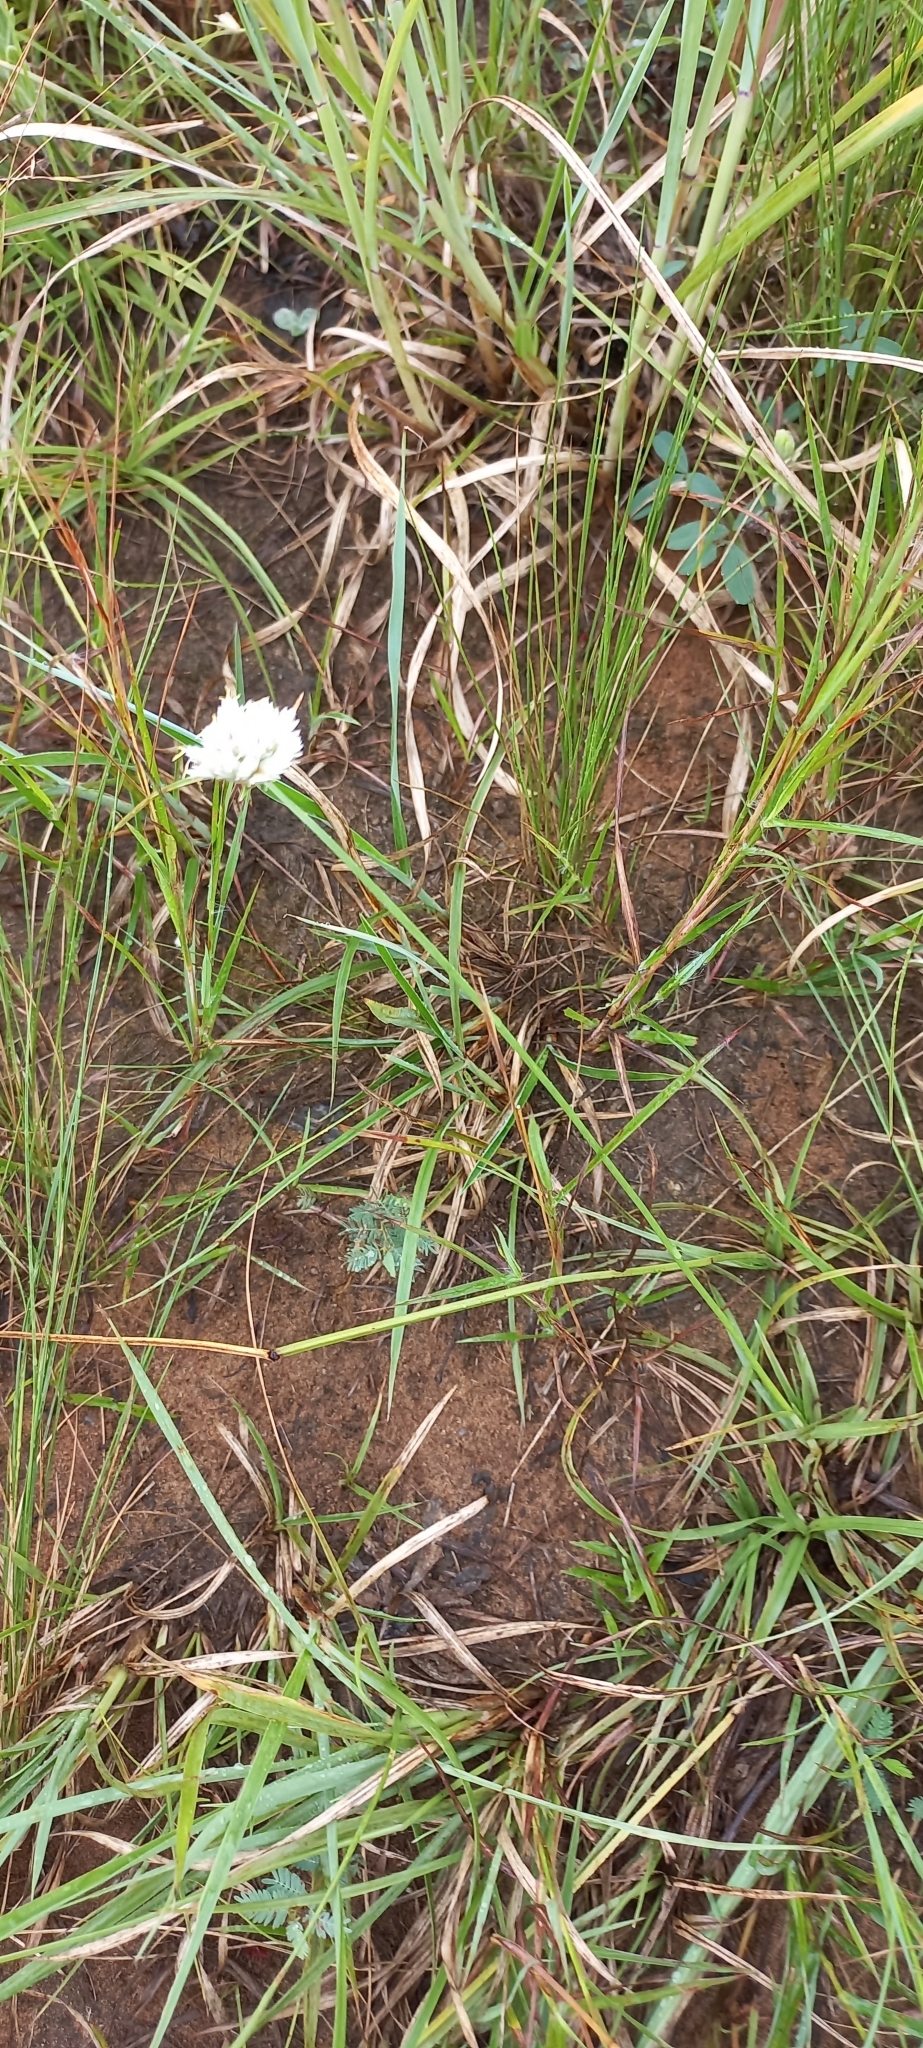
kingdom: Plantae
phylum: Tracheophyta
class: Liliopsida
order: Poales
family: Cyperaceae
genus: Cyperus
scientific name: Cyperus niveus
